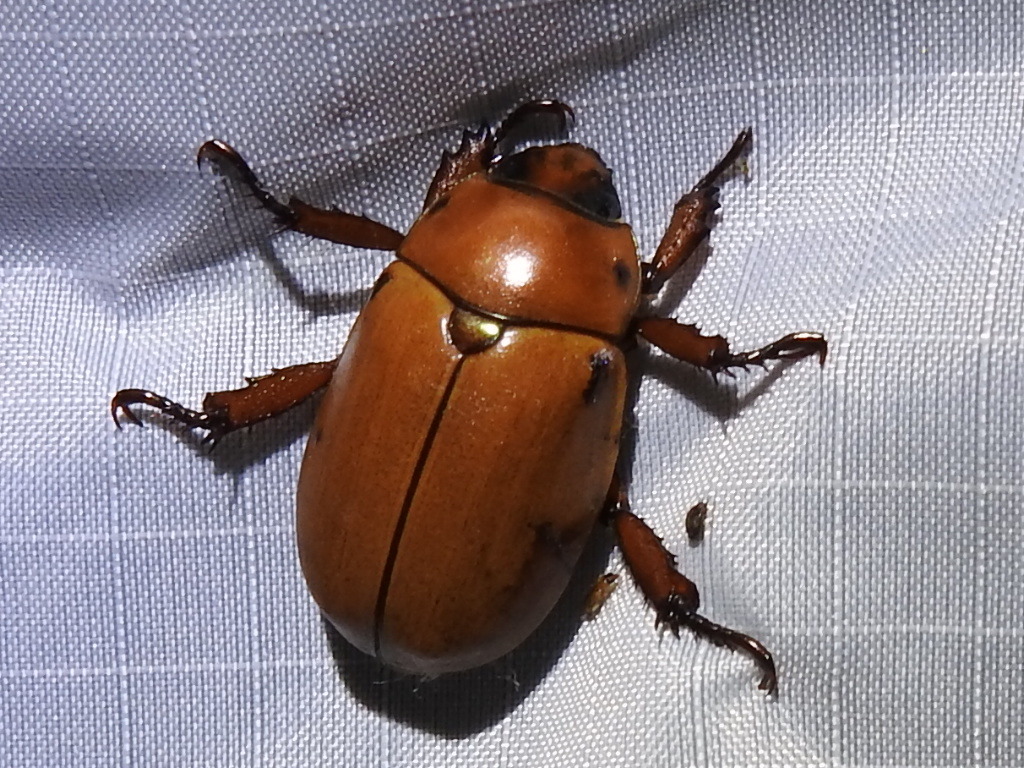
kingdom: Animalia
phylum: Arthropoda
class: Insecta
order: Coleoptera
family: Scarabaeidae
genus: Pelidnota
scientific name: Pelidnota punctata
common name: Grapevine beetle
